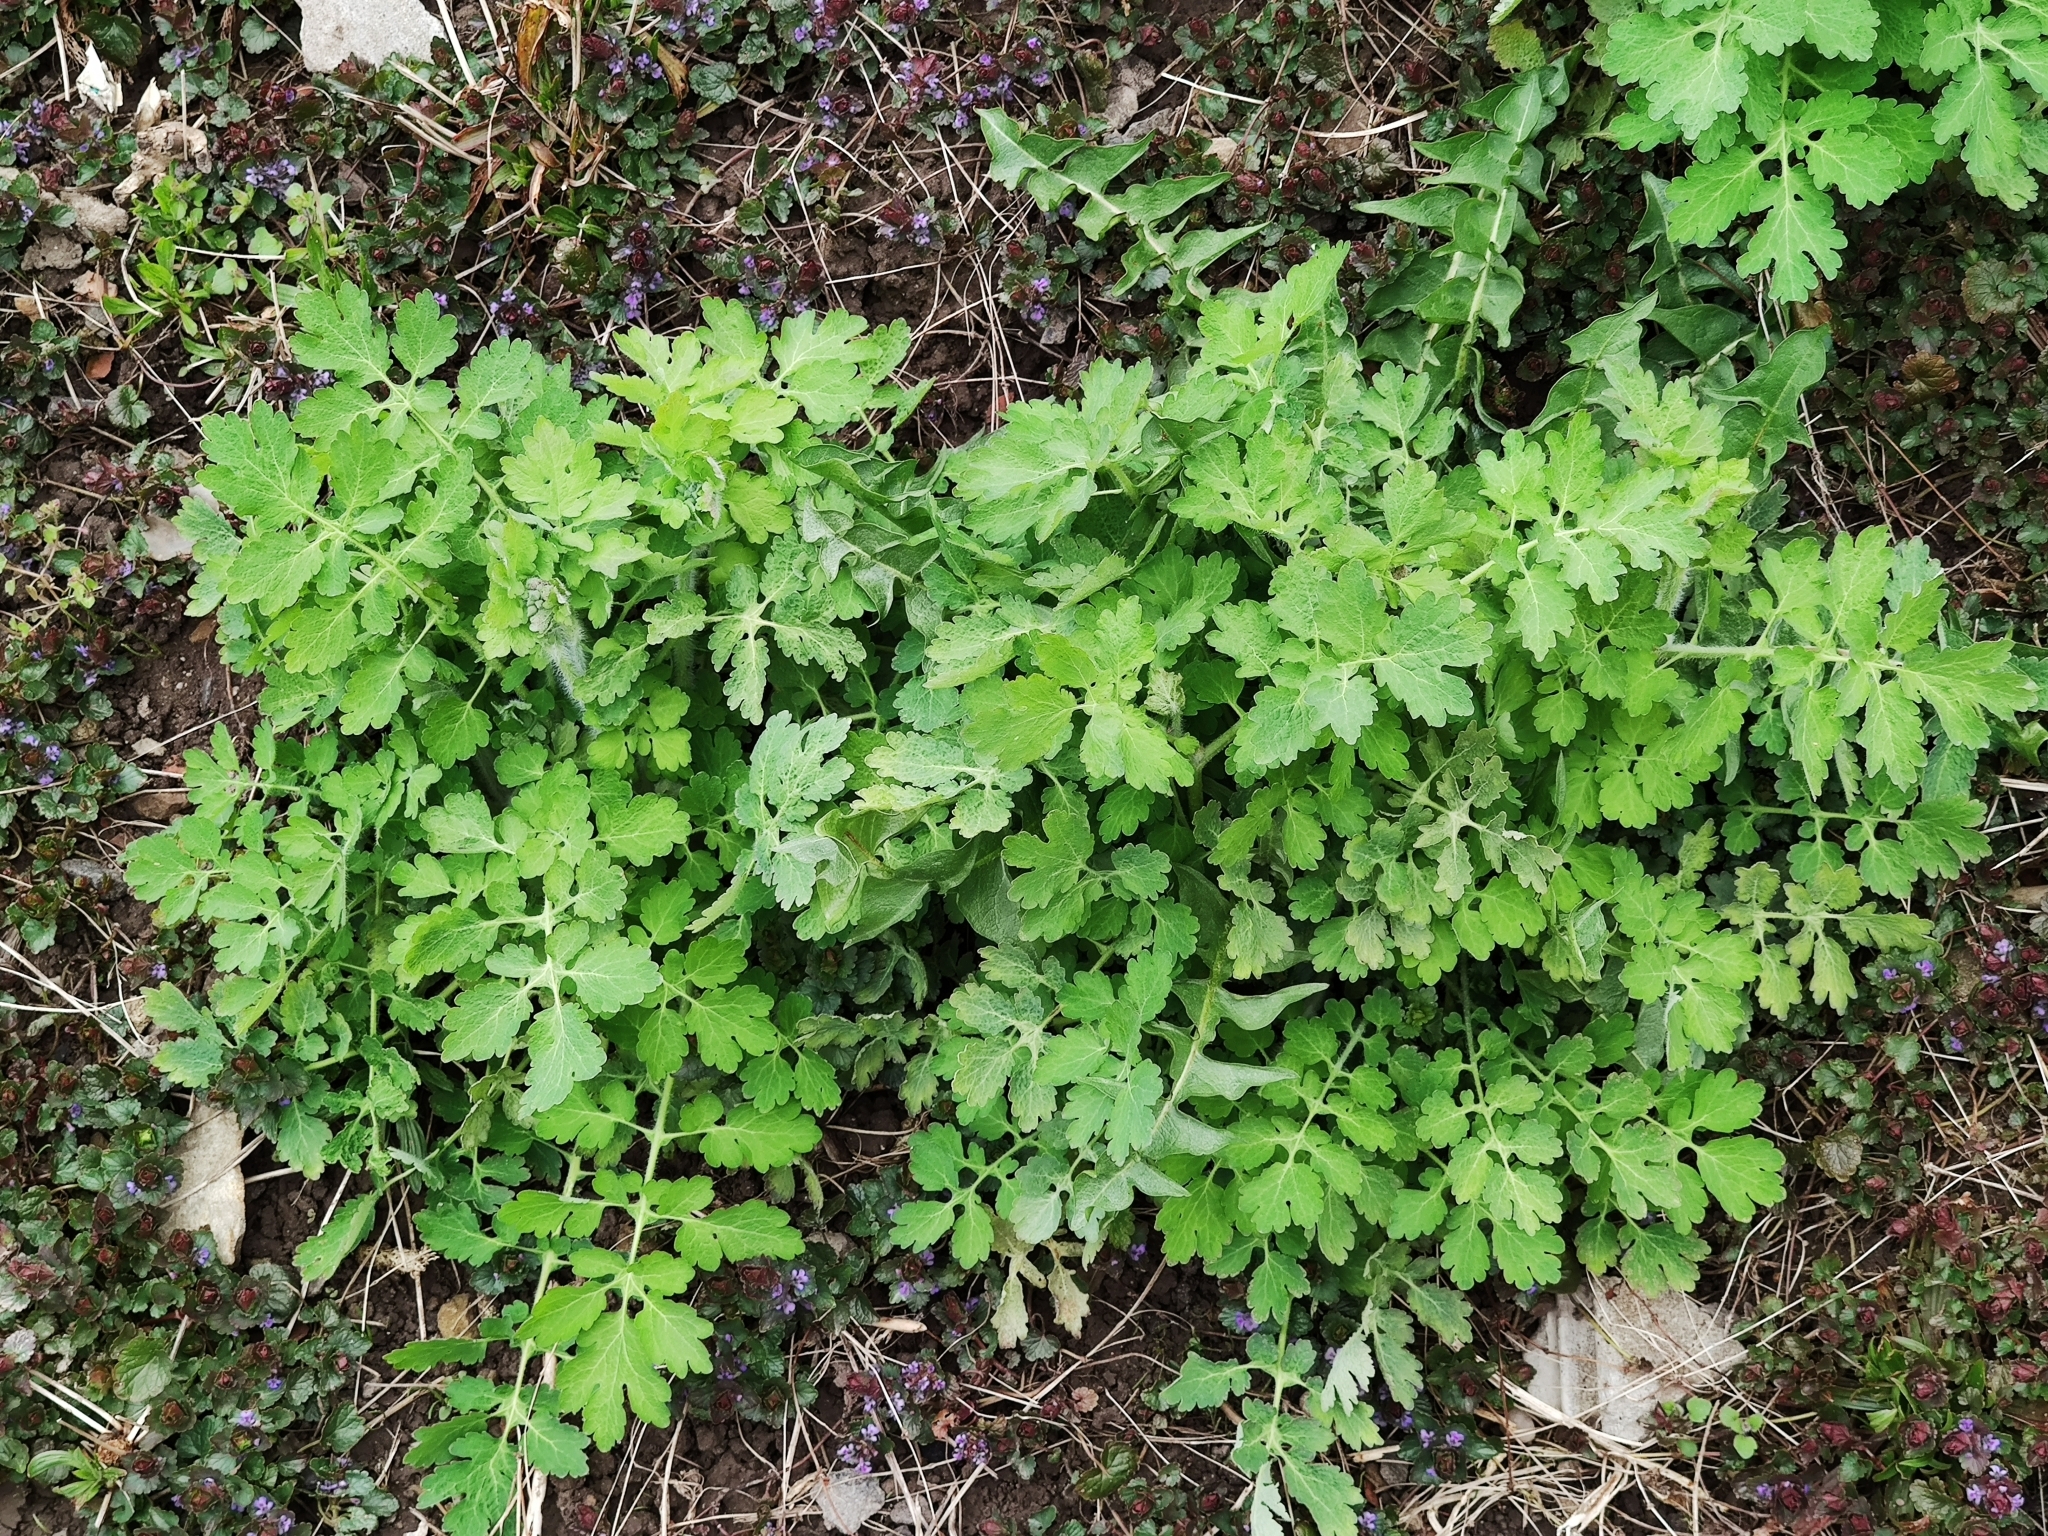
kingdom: Plantae
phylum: Tracheophyta
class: Magnoliopsida
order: Ranunculales
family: Papaveraceae
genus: Chelidonium
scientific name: Chelidonium majus
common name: Greater celandine
